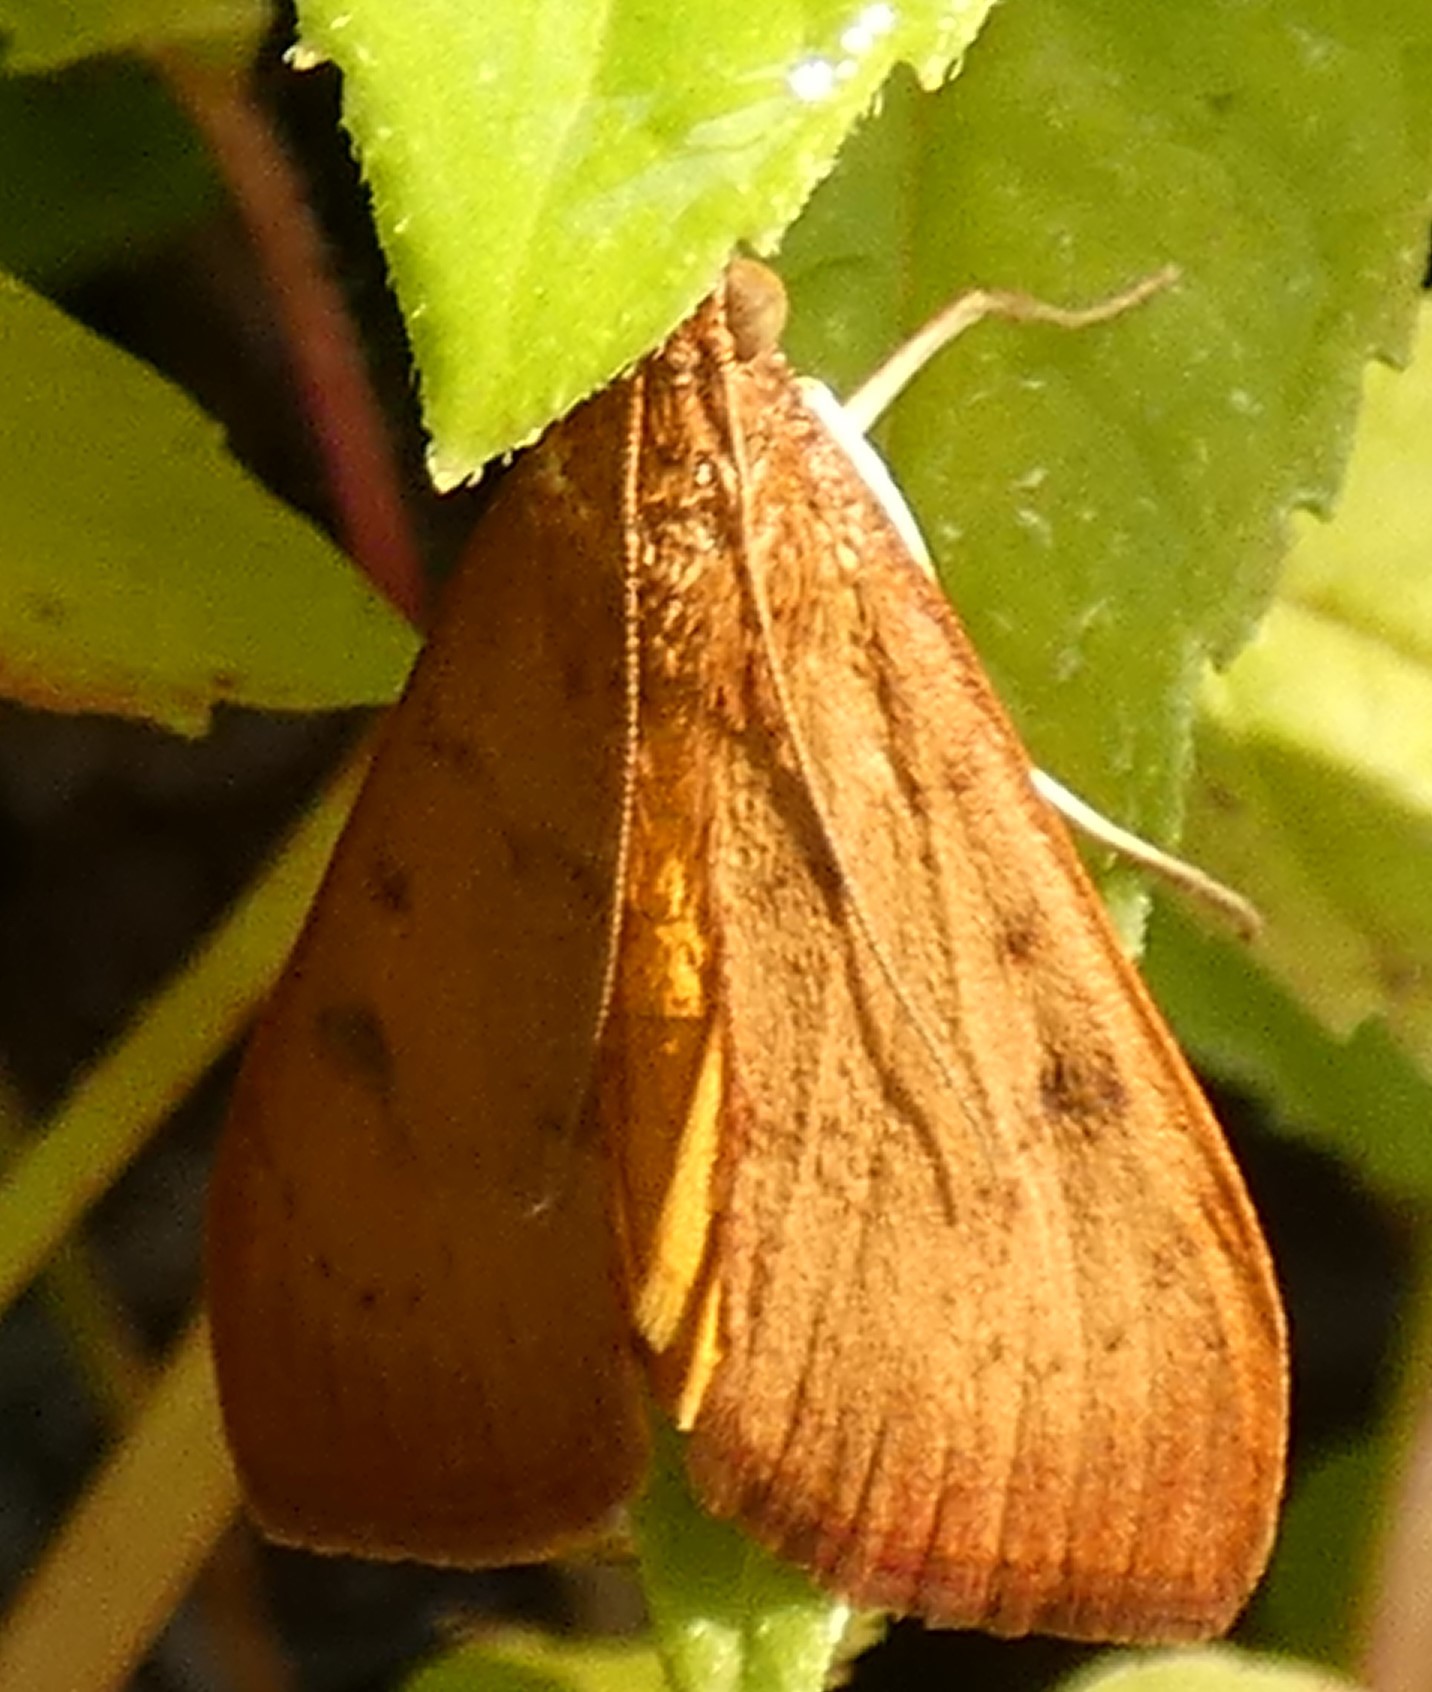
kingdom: Animalia
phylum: Arthropoda
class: Insecta
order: Lepidoptera
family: Crambidae
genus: Uresiphita
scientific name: Uresiphita reversalis
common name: Genista broom moth
